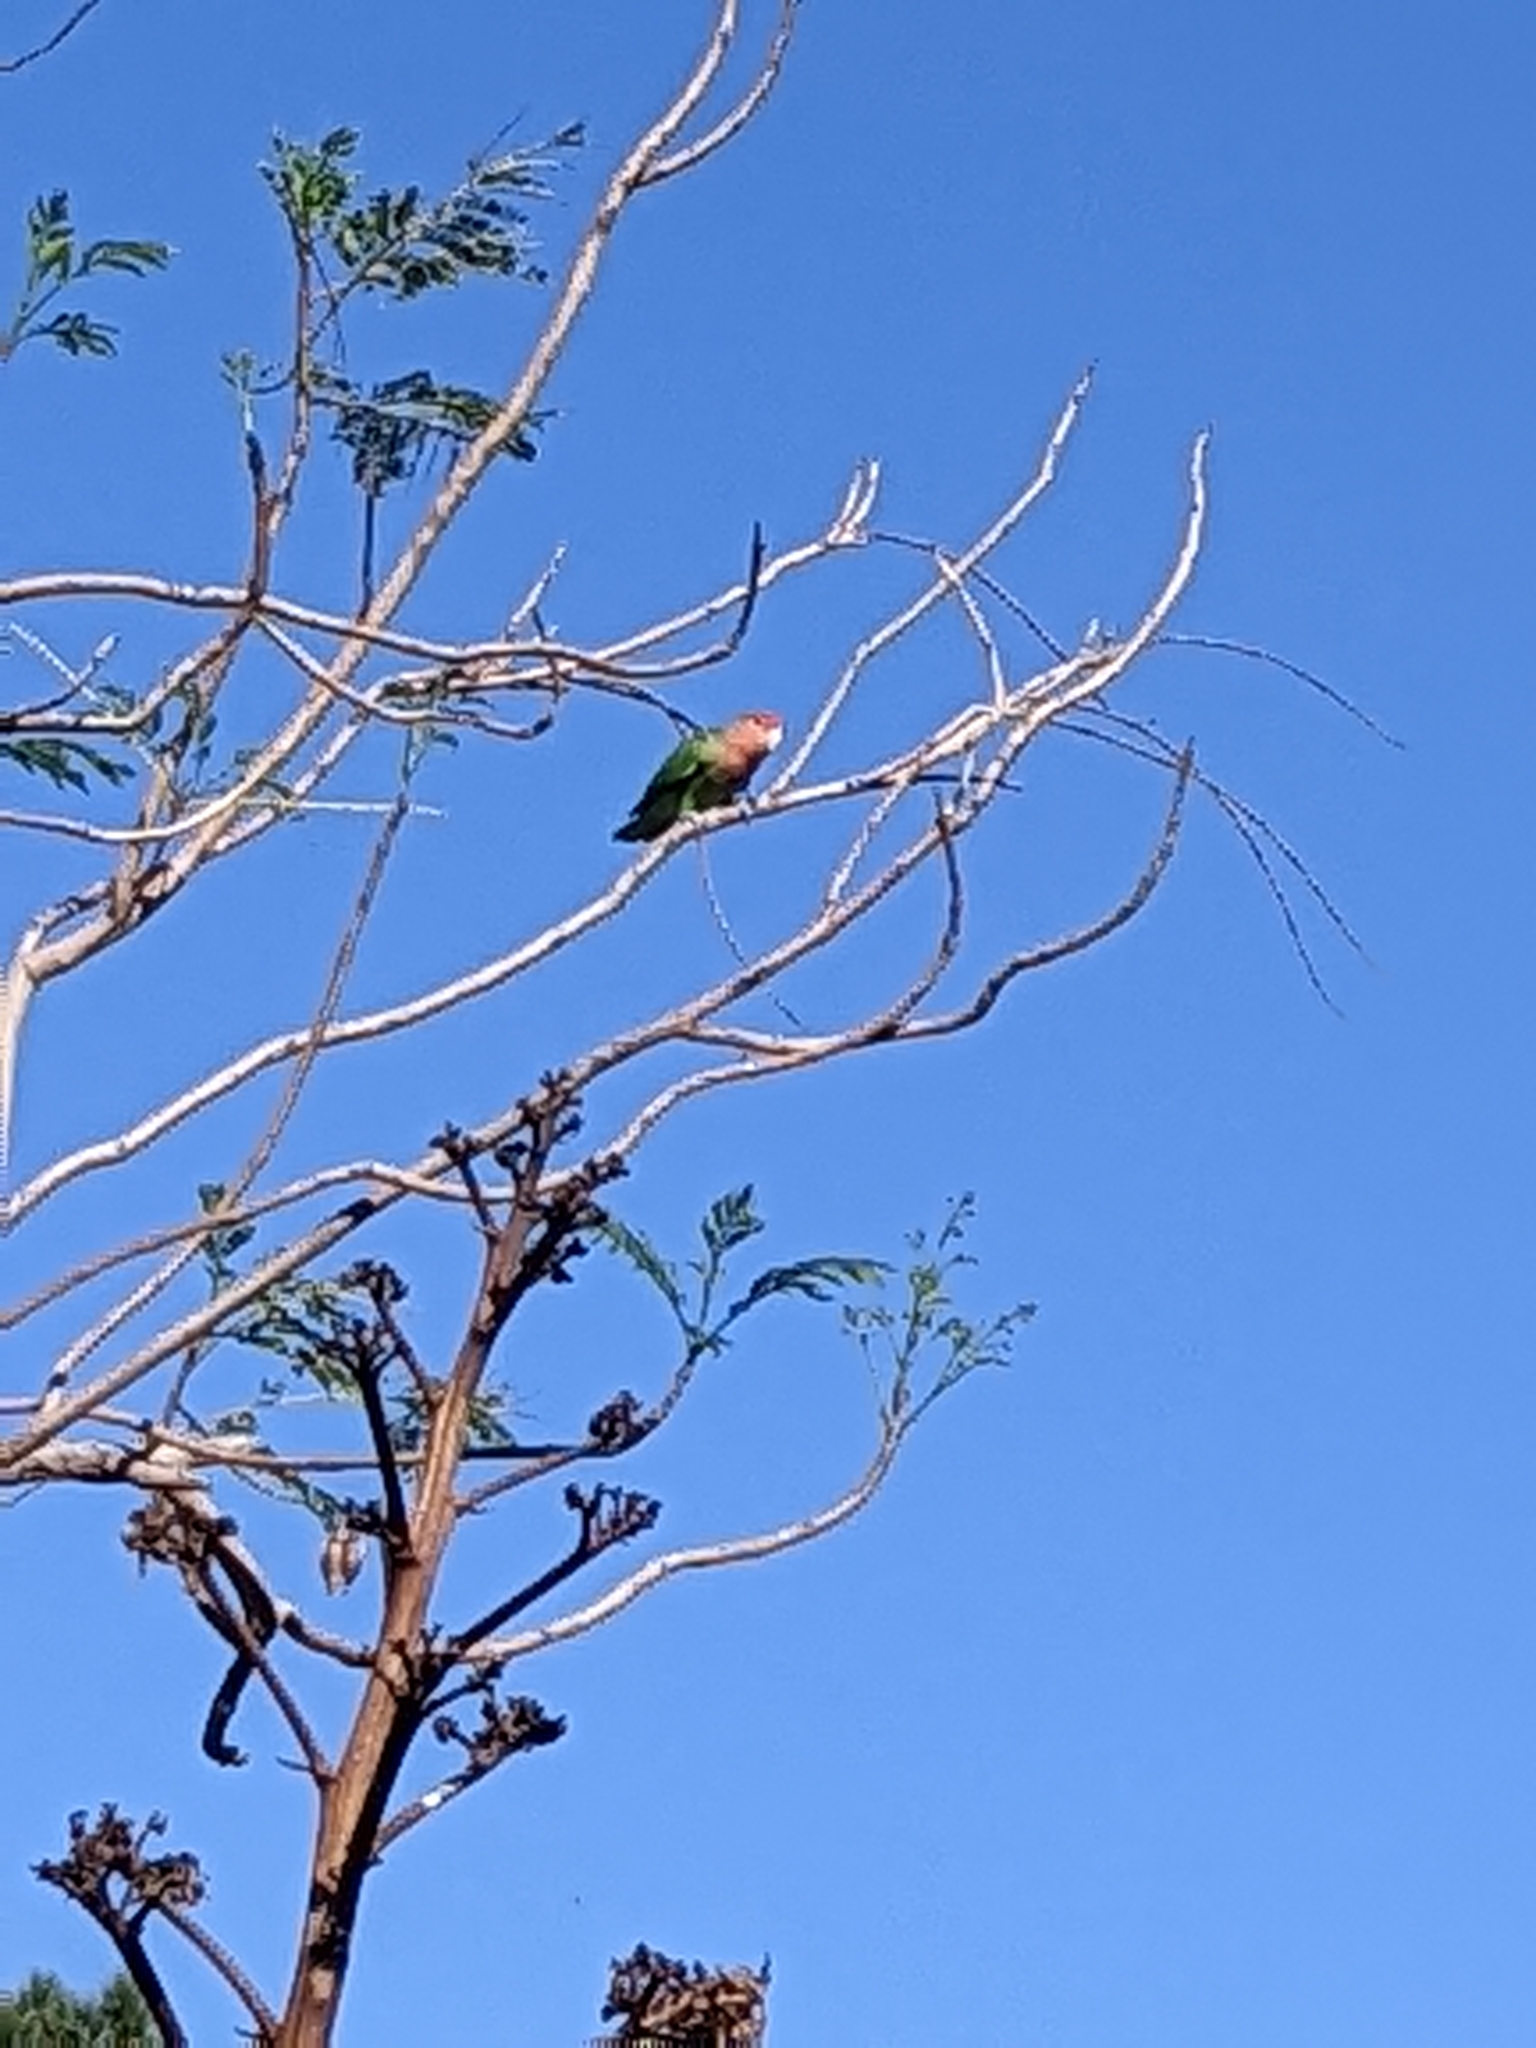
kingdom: Animalia
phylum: Chordata
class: Aves
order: Psittaciformes
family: Psittacidae
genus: Agapornis
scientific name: Agapornis roseicollis
